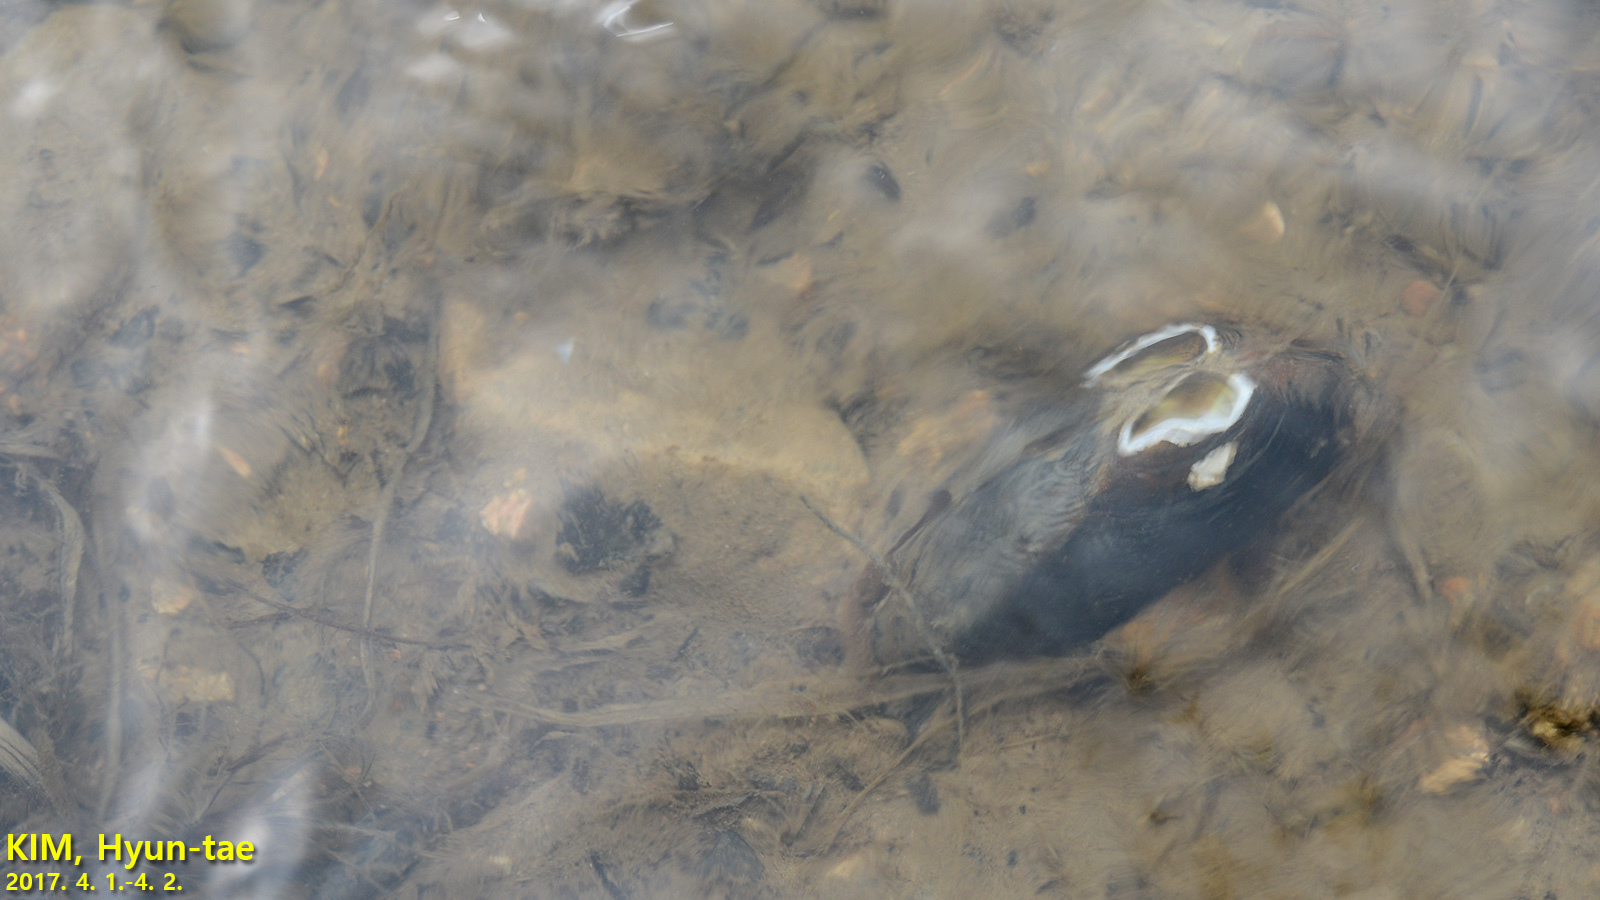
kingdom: Animalia
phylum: Mollusca
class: Bivalvia
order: Unionida
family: Unionidae
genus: Nodularia
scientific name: Nodularia douglasiae
